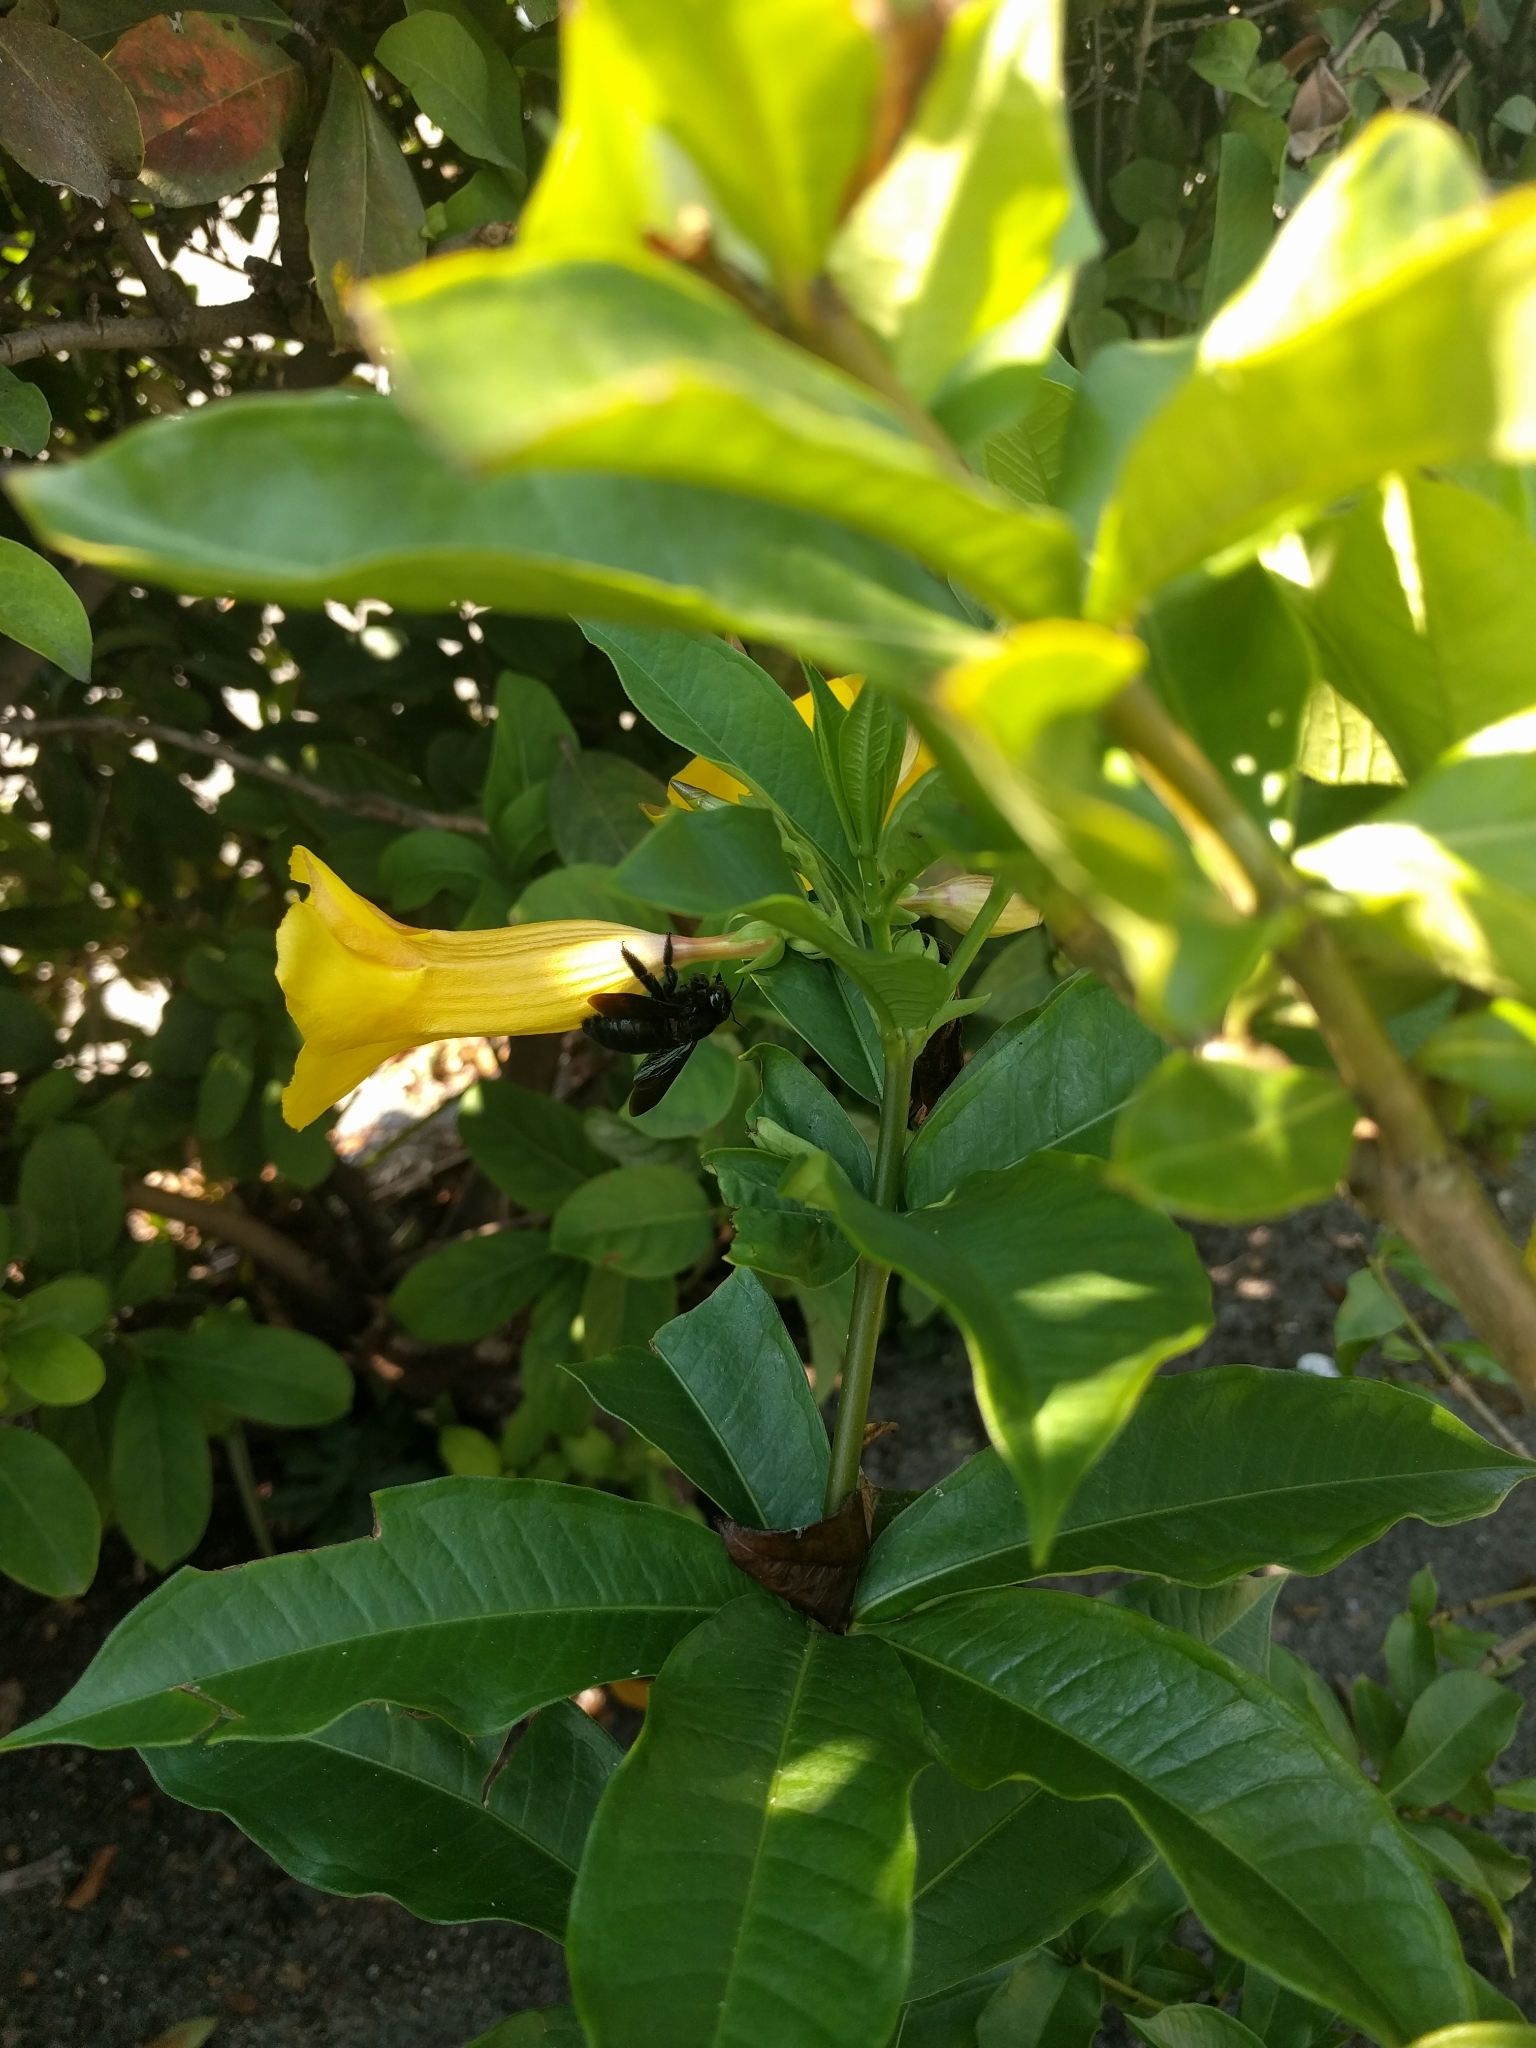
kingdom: Animalia
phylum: Arthropoda
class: Insecta
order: Hymenoptera
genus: Neoxylocopa
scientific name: Neoxylocopa
